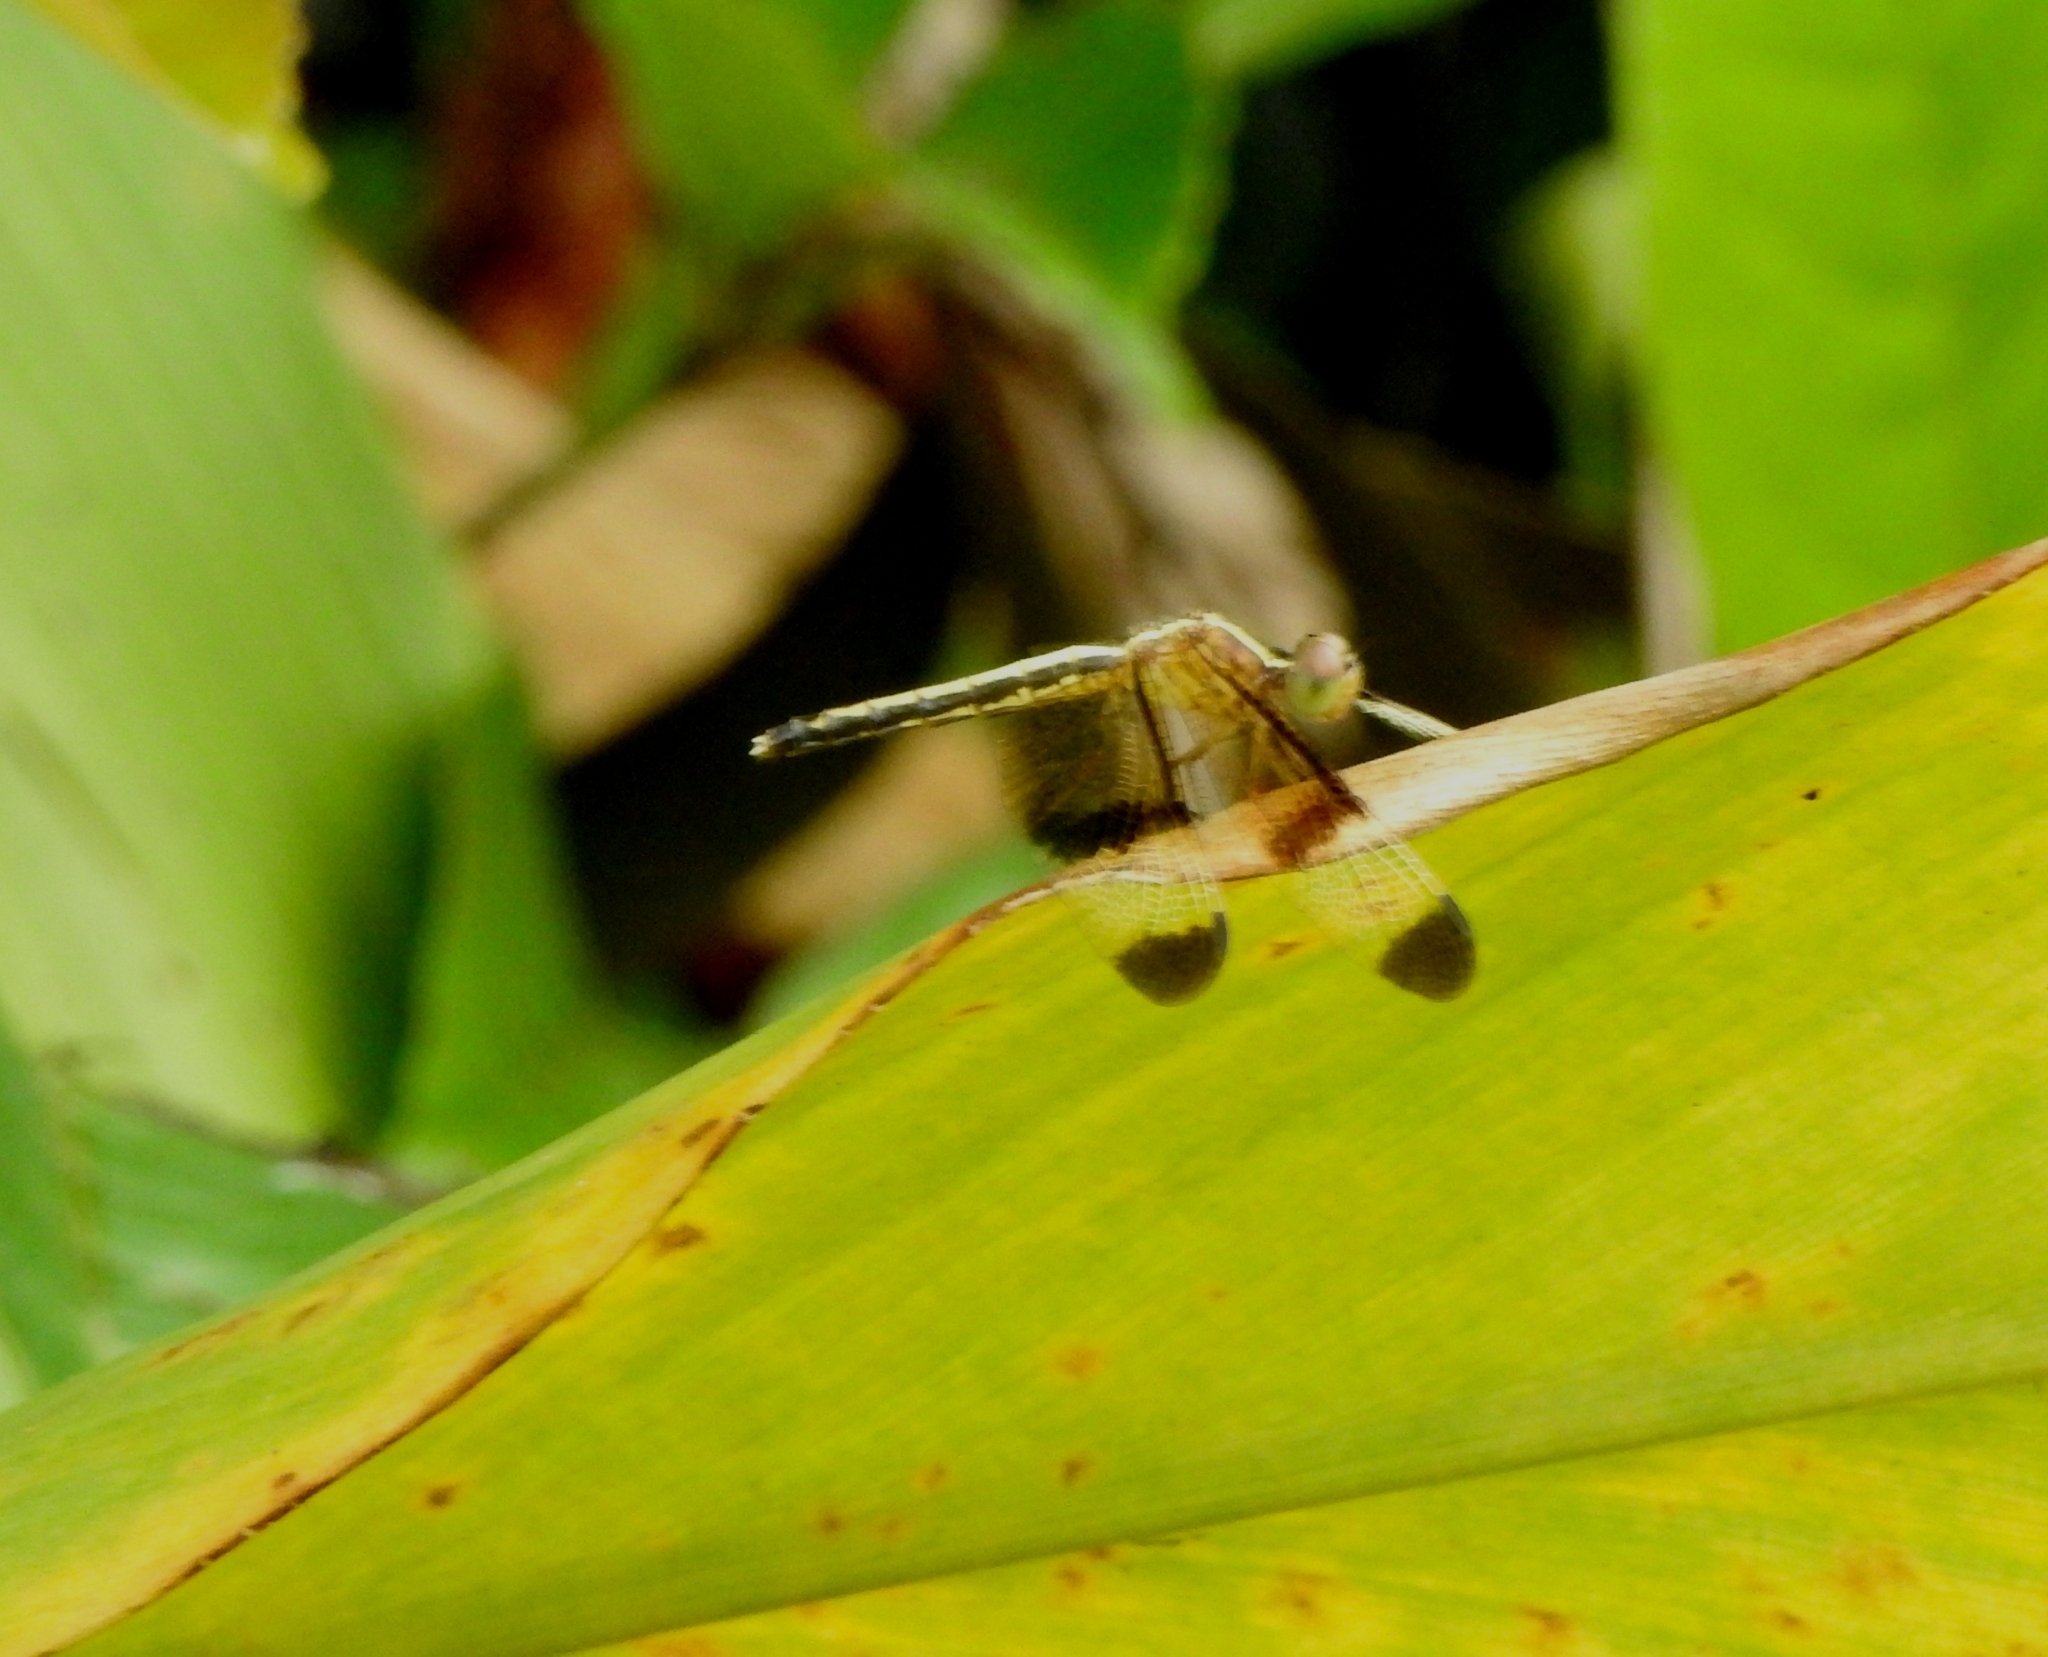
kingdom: Animalia
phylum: Arthropoda
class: Insecta
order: Odonata
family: Libellulidae
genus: Neurothemis
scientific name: Neurothemis tullia
